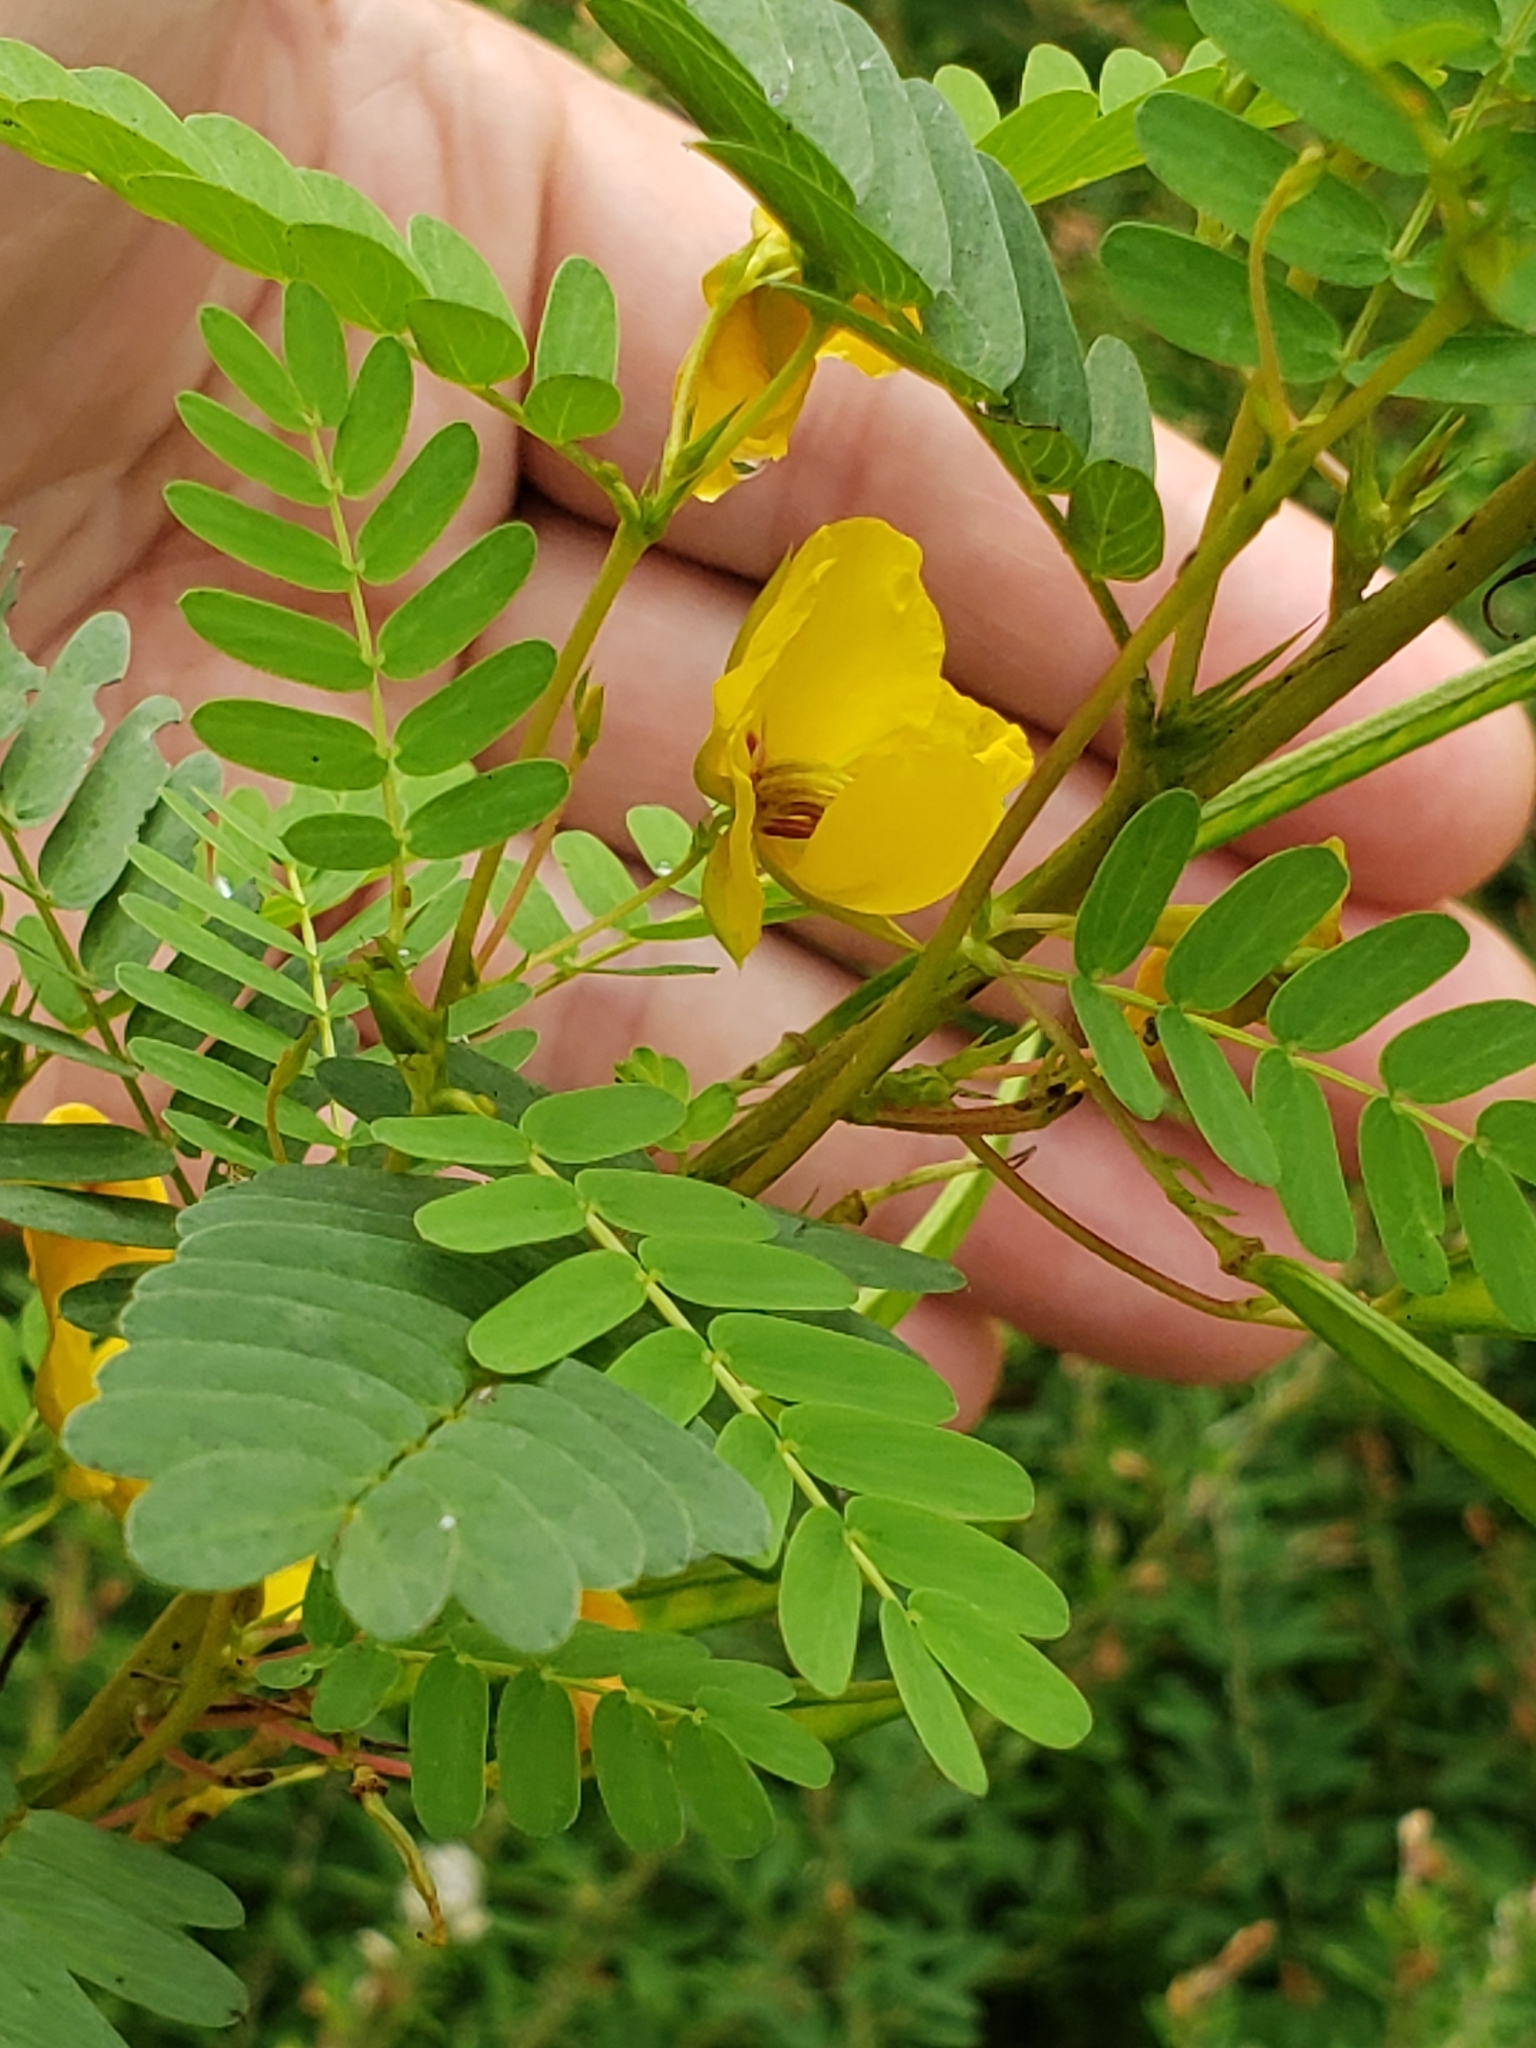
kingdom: Plantae
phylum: Tracheophyta
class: Magnoliopsida
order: Fabales
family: Fabaceae
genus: Chamaecrista
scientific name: Chamaecrista fasciculata
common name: Golden cassia
